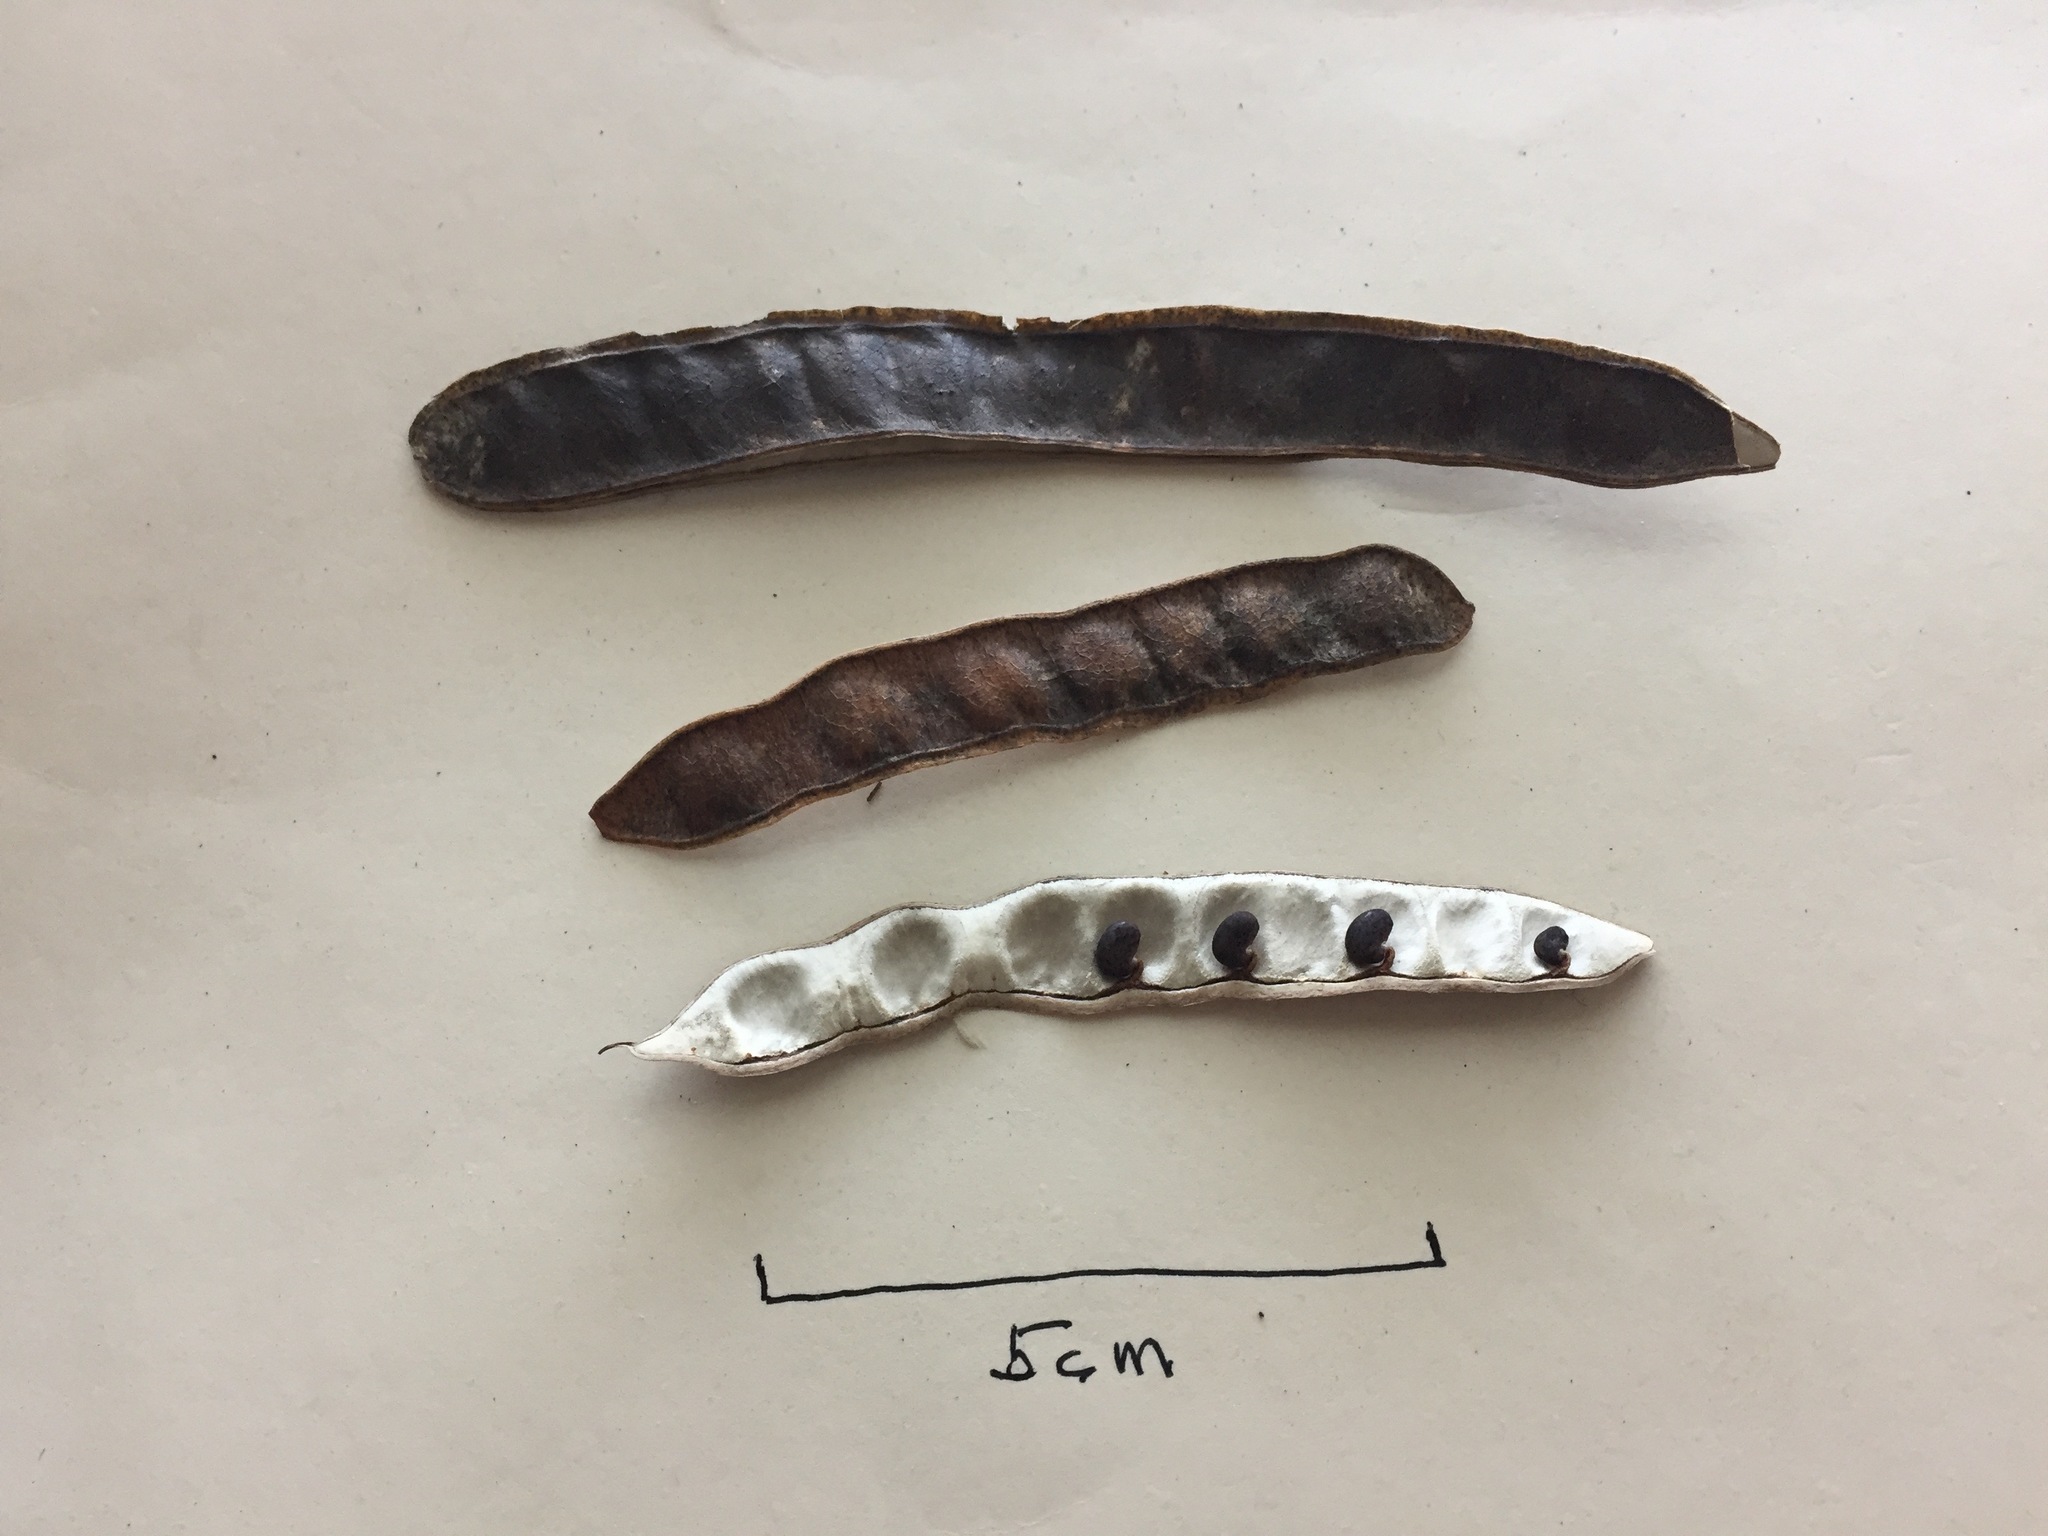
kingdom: Plantae
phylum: Tracheophyta
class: Magnoliopsida
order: Fabales
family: Fabaceae
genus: Robinia
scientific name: Robinia pseudoacacia
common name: Black locust
